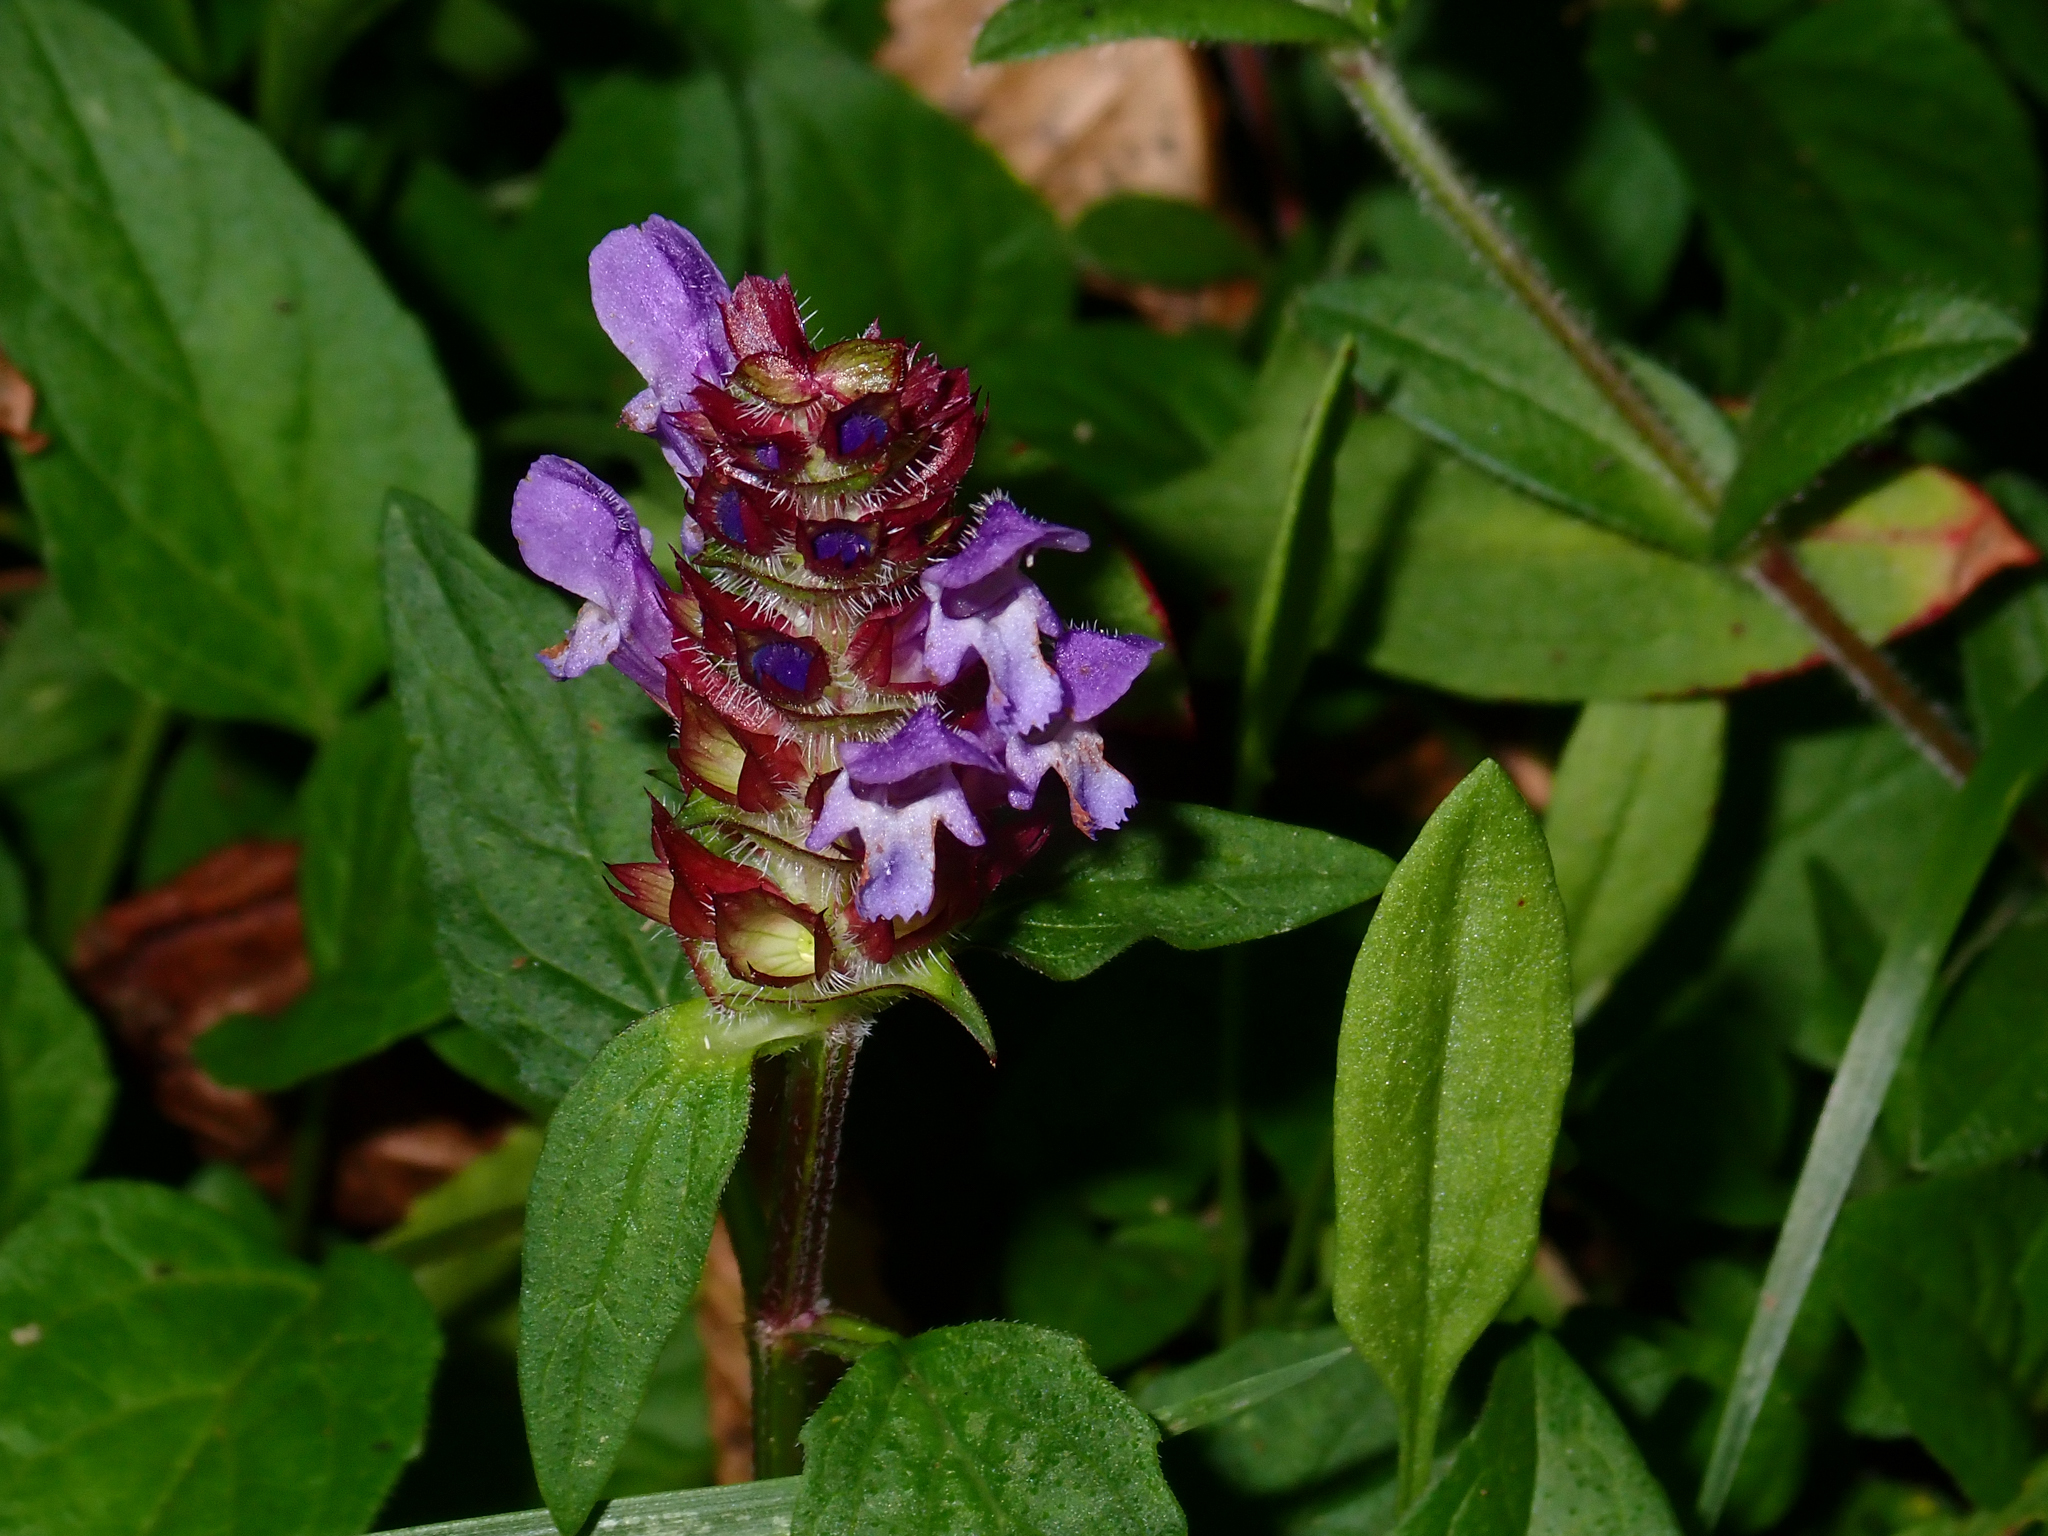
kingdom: Plantae
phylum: Tracheophyta
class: Magnoliopsida
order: Lamiales
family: Lamiaceae
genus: Prunella
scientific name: Prunella vulgaris
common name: Heal-all
